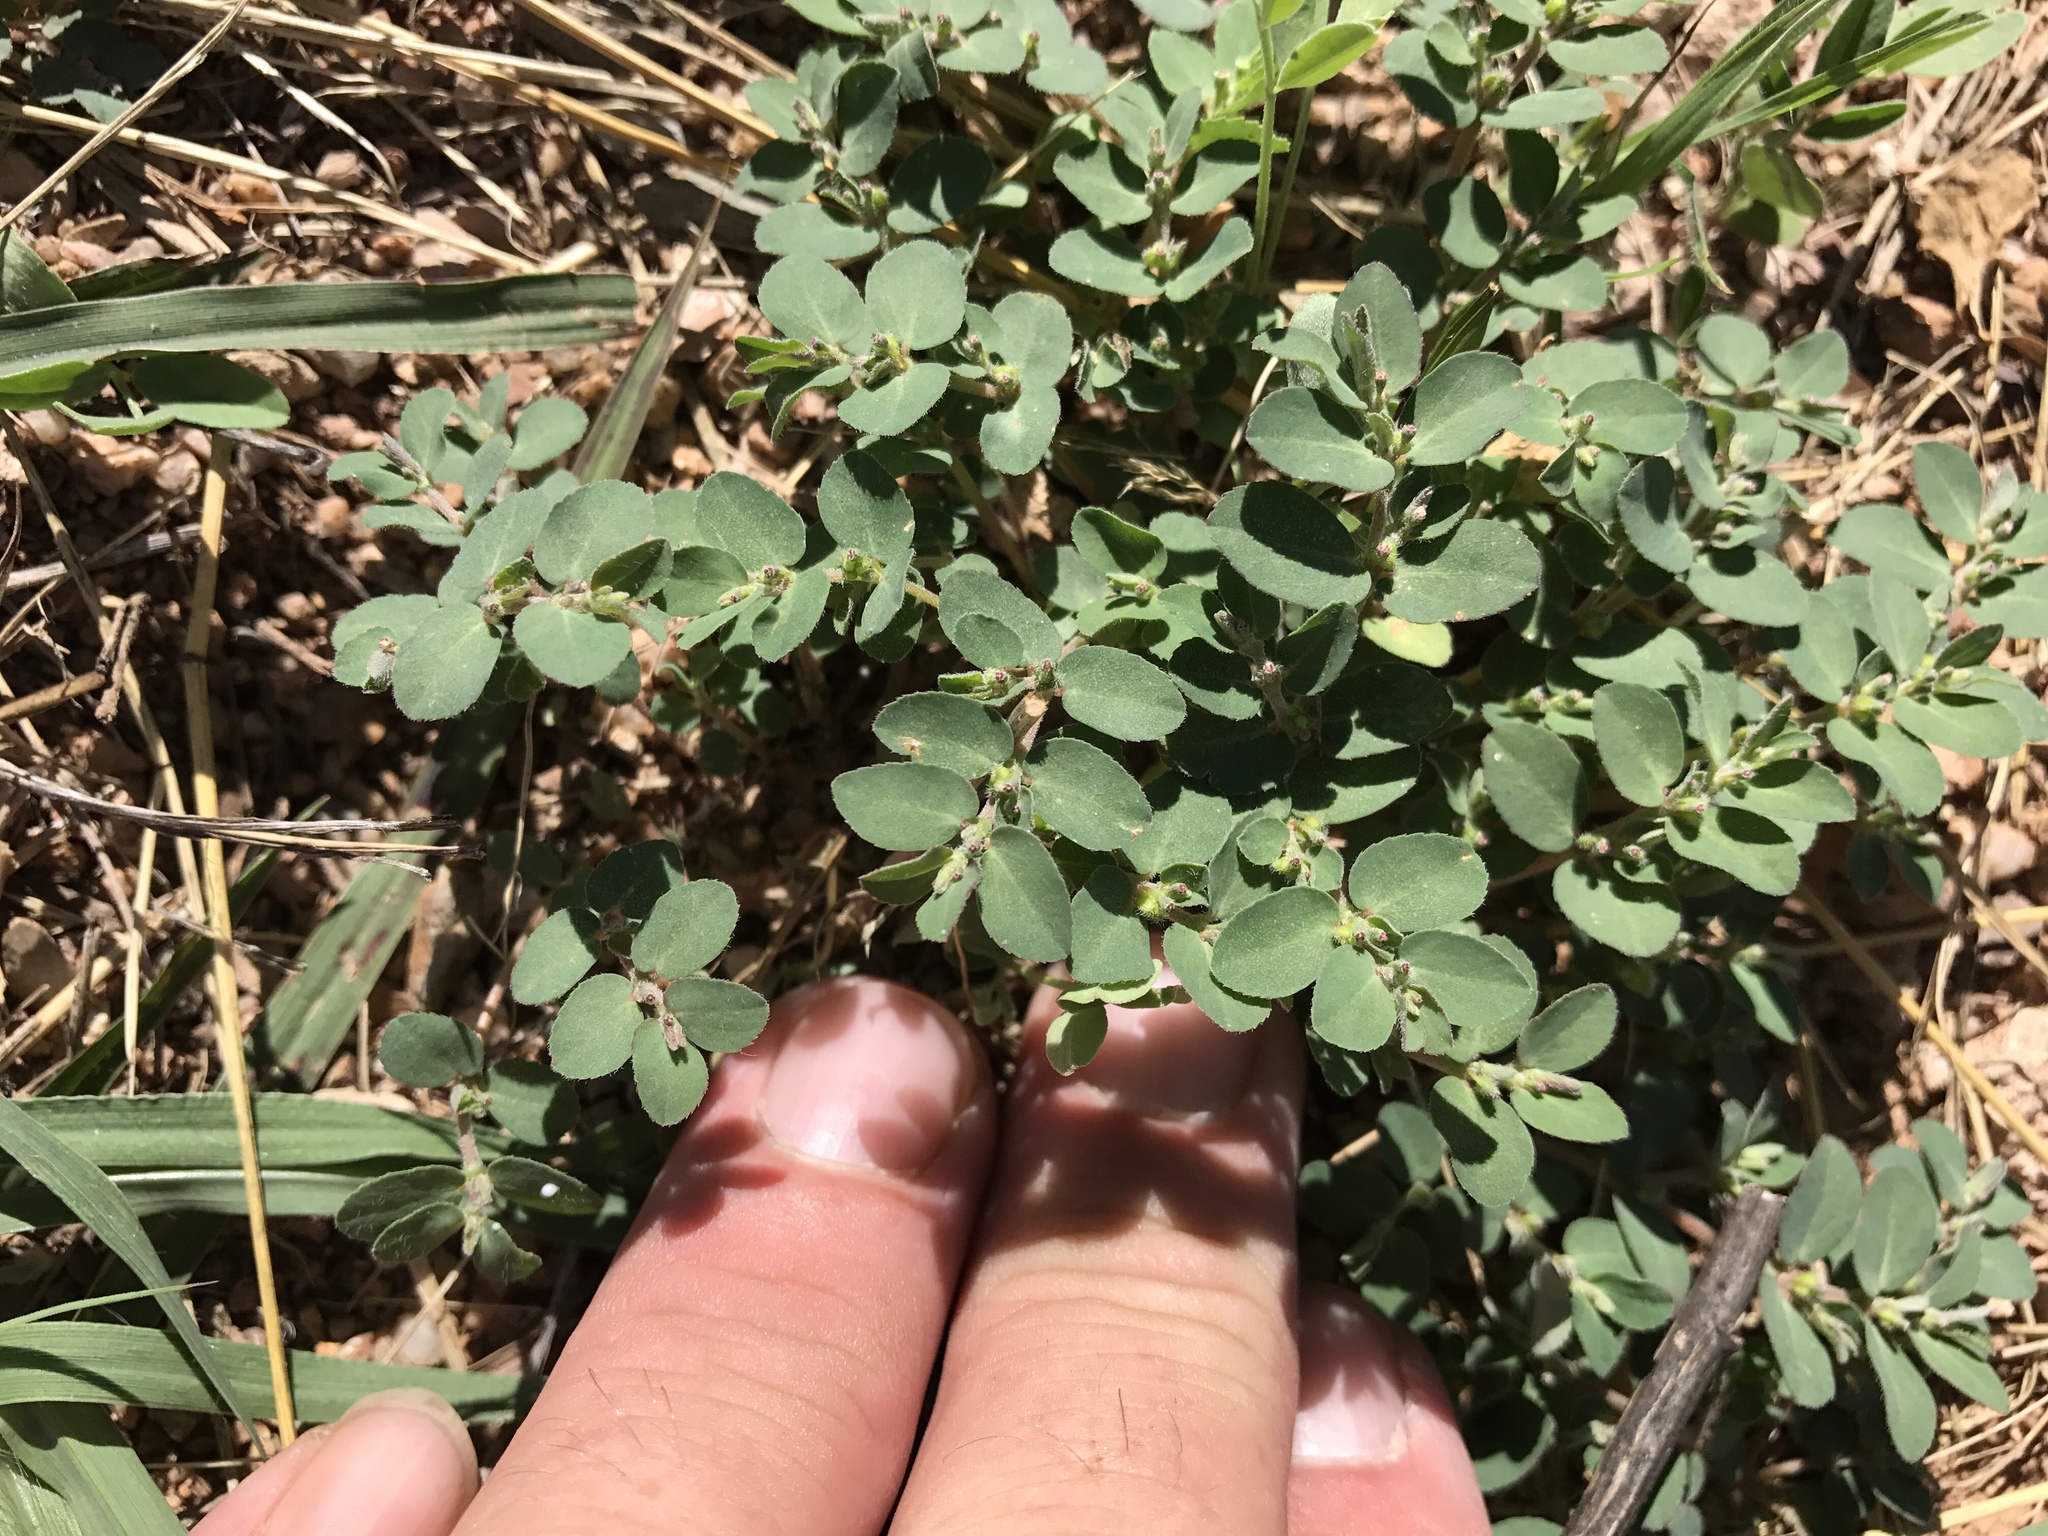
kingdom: Plantae
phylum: Tracheophyta
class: Magnoliopsida
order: Malpighiales
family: Euphorbiaceae
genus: Euphorbia
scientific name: Euphorbia prostrata
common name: Prostrate sandmat
